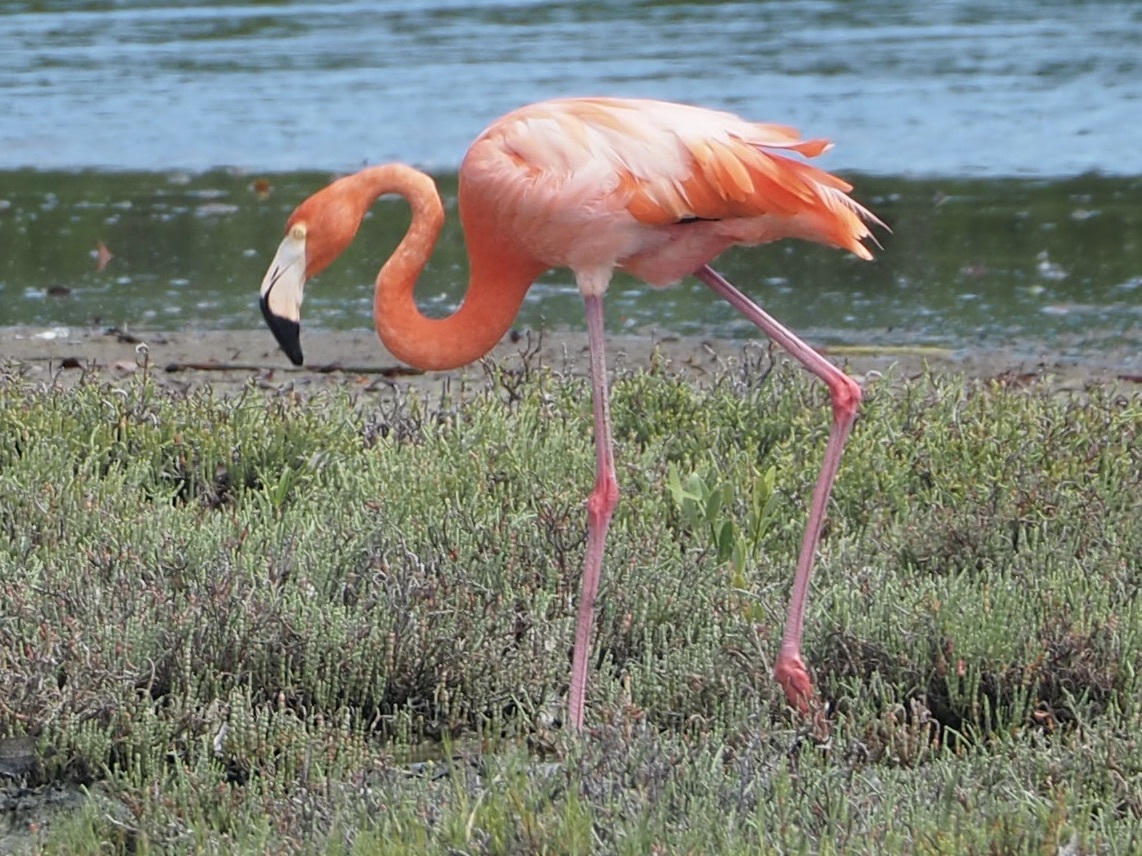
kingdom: Animalia
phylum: Chordata
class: Aves
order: Phoenicopteriformes
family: Phoenicopteridae
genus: Phoenicopterus
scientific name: Phoenicopterus ruber
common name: American flamingo
